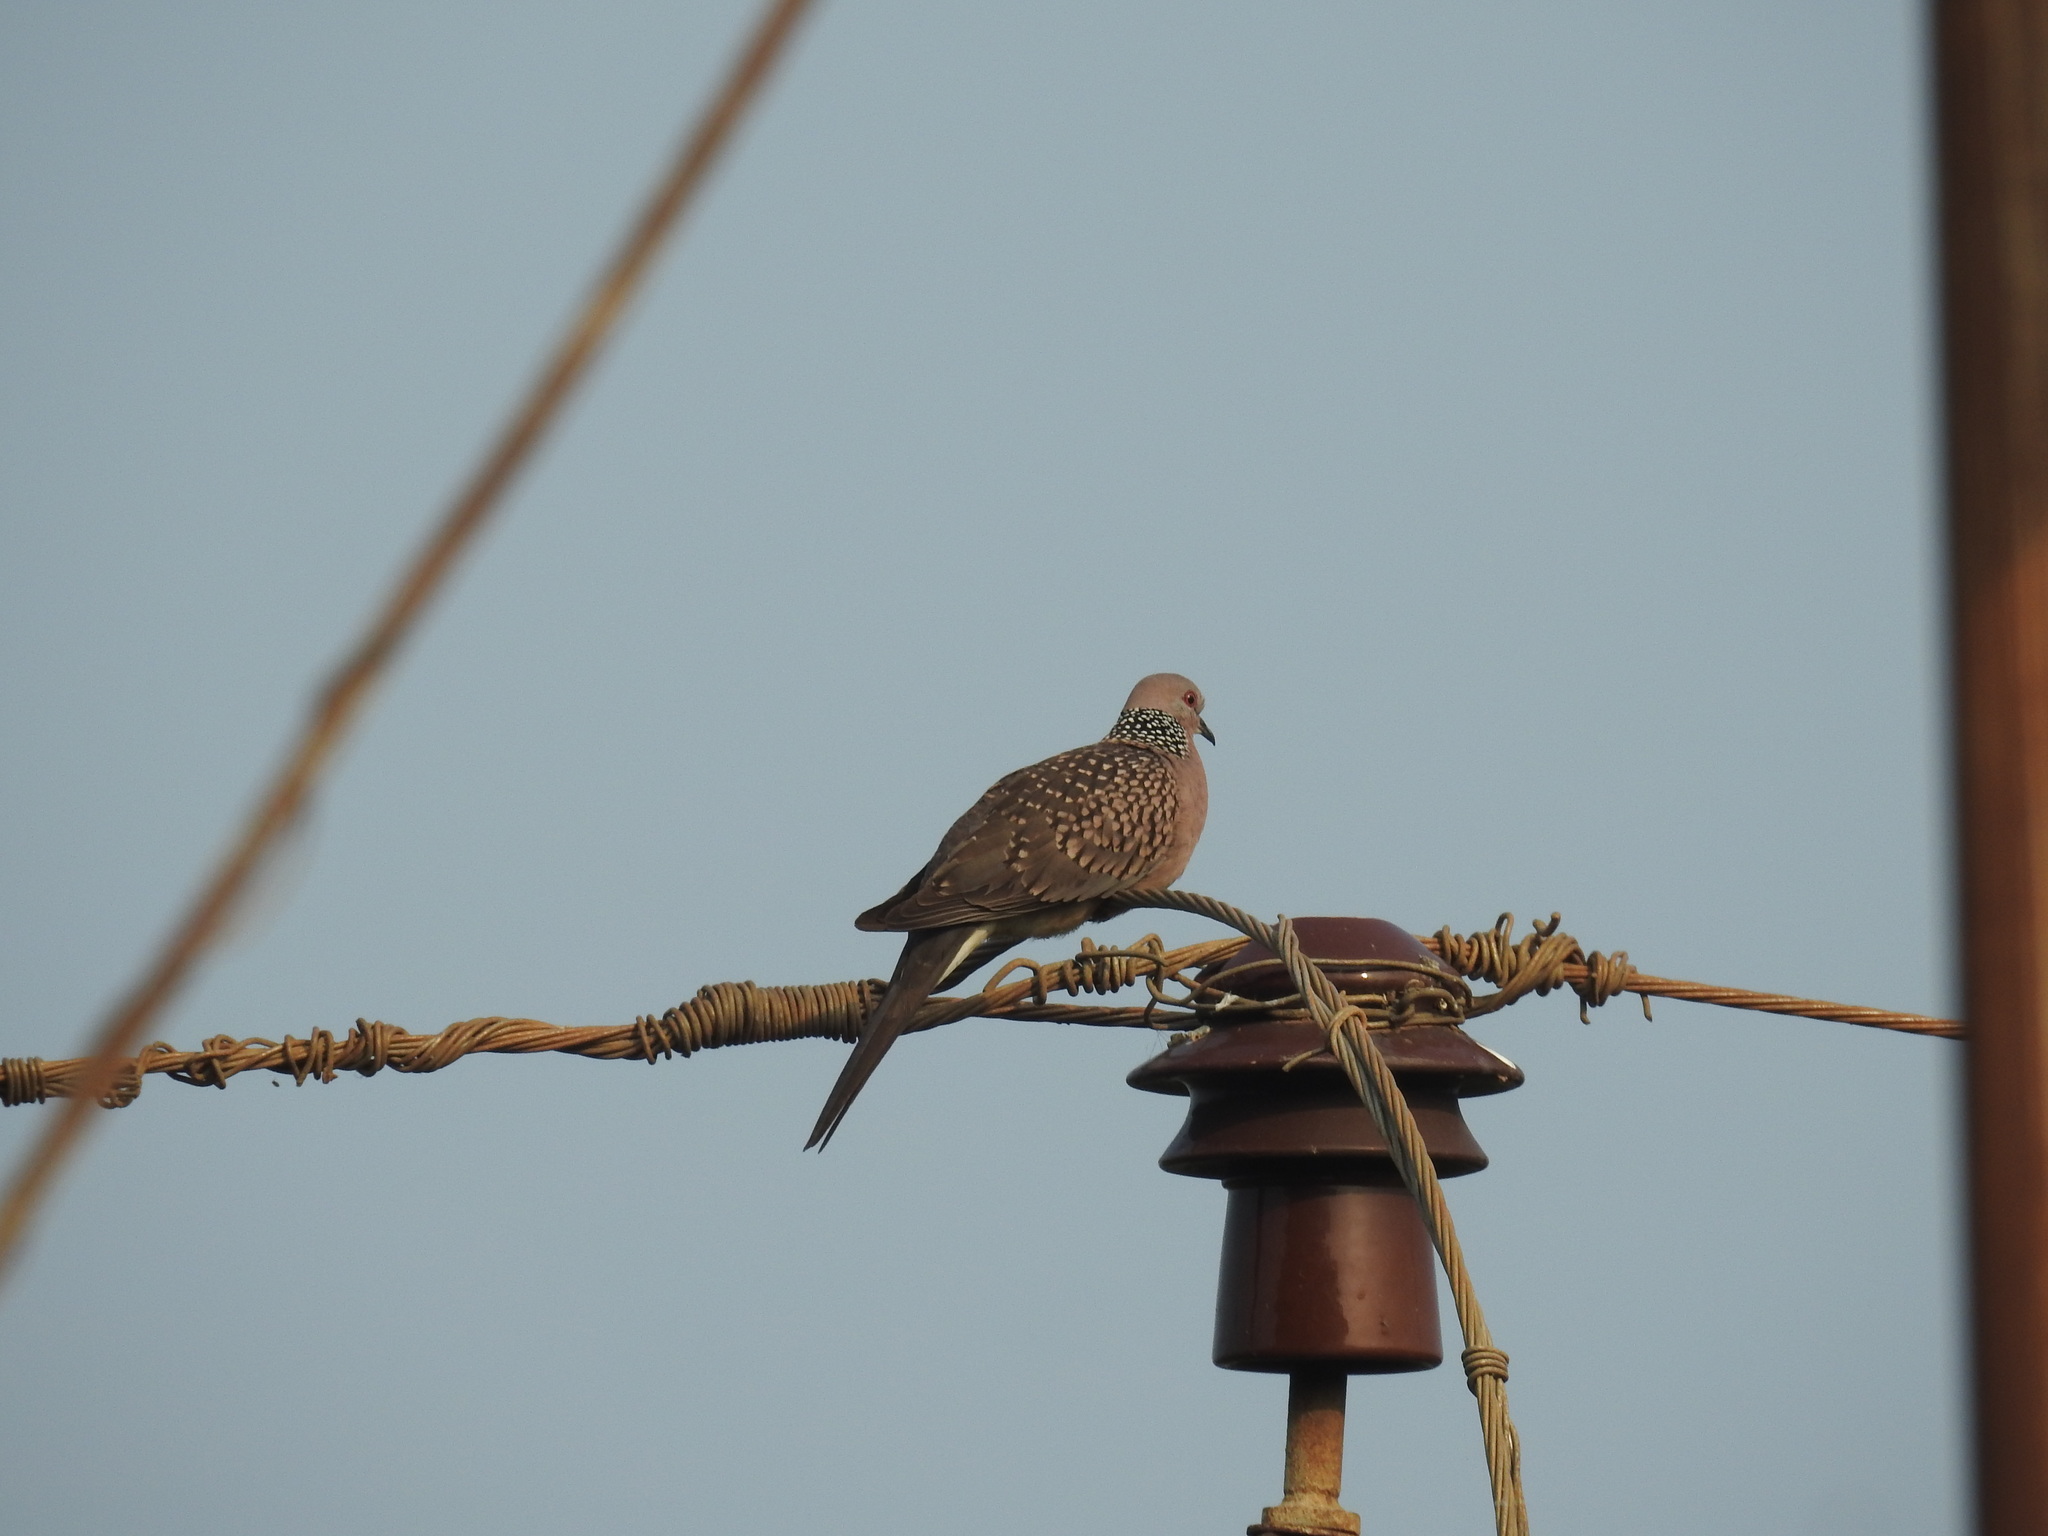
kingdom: Animalia
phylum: Chordata
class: Aves
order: Columbiformes
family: Columbidae
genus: Spilopelia
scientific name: Spilopelia chinensis
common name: Spotted dove
